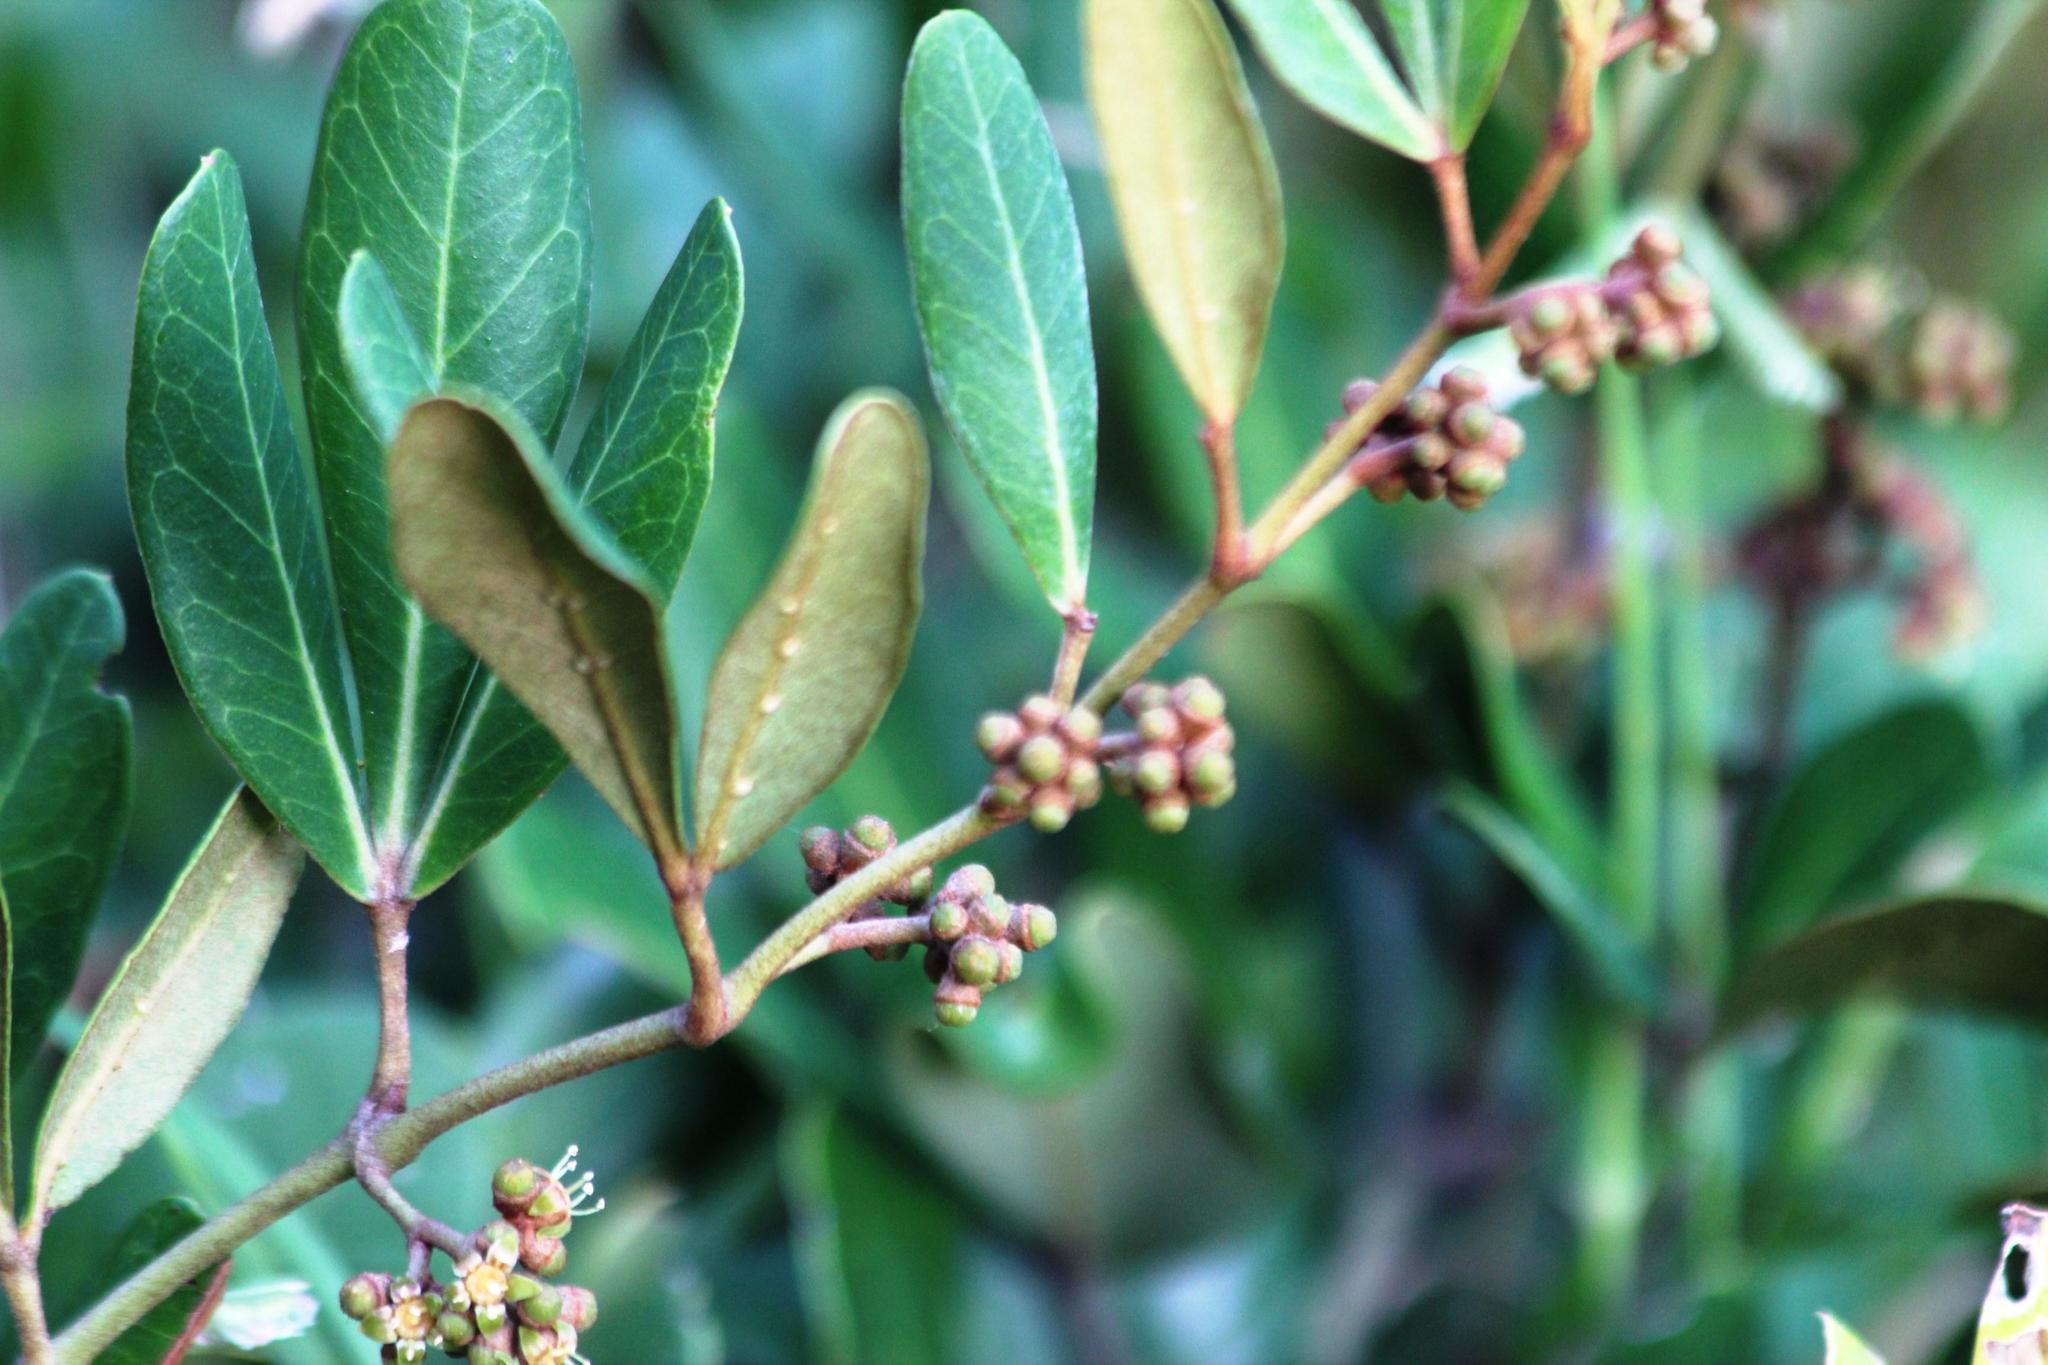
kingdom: Plantae
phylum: Tracheophyta
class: Magnoliopsida
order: Vitales
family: Vitaceae
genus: Rhoicissus
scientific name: Rhoicissus digitata
